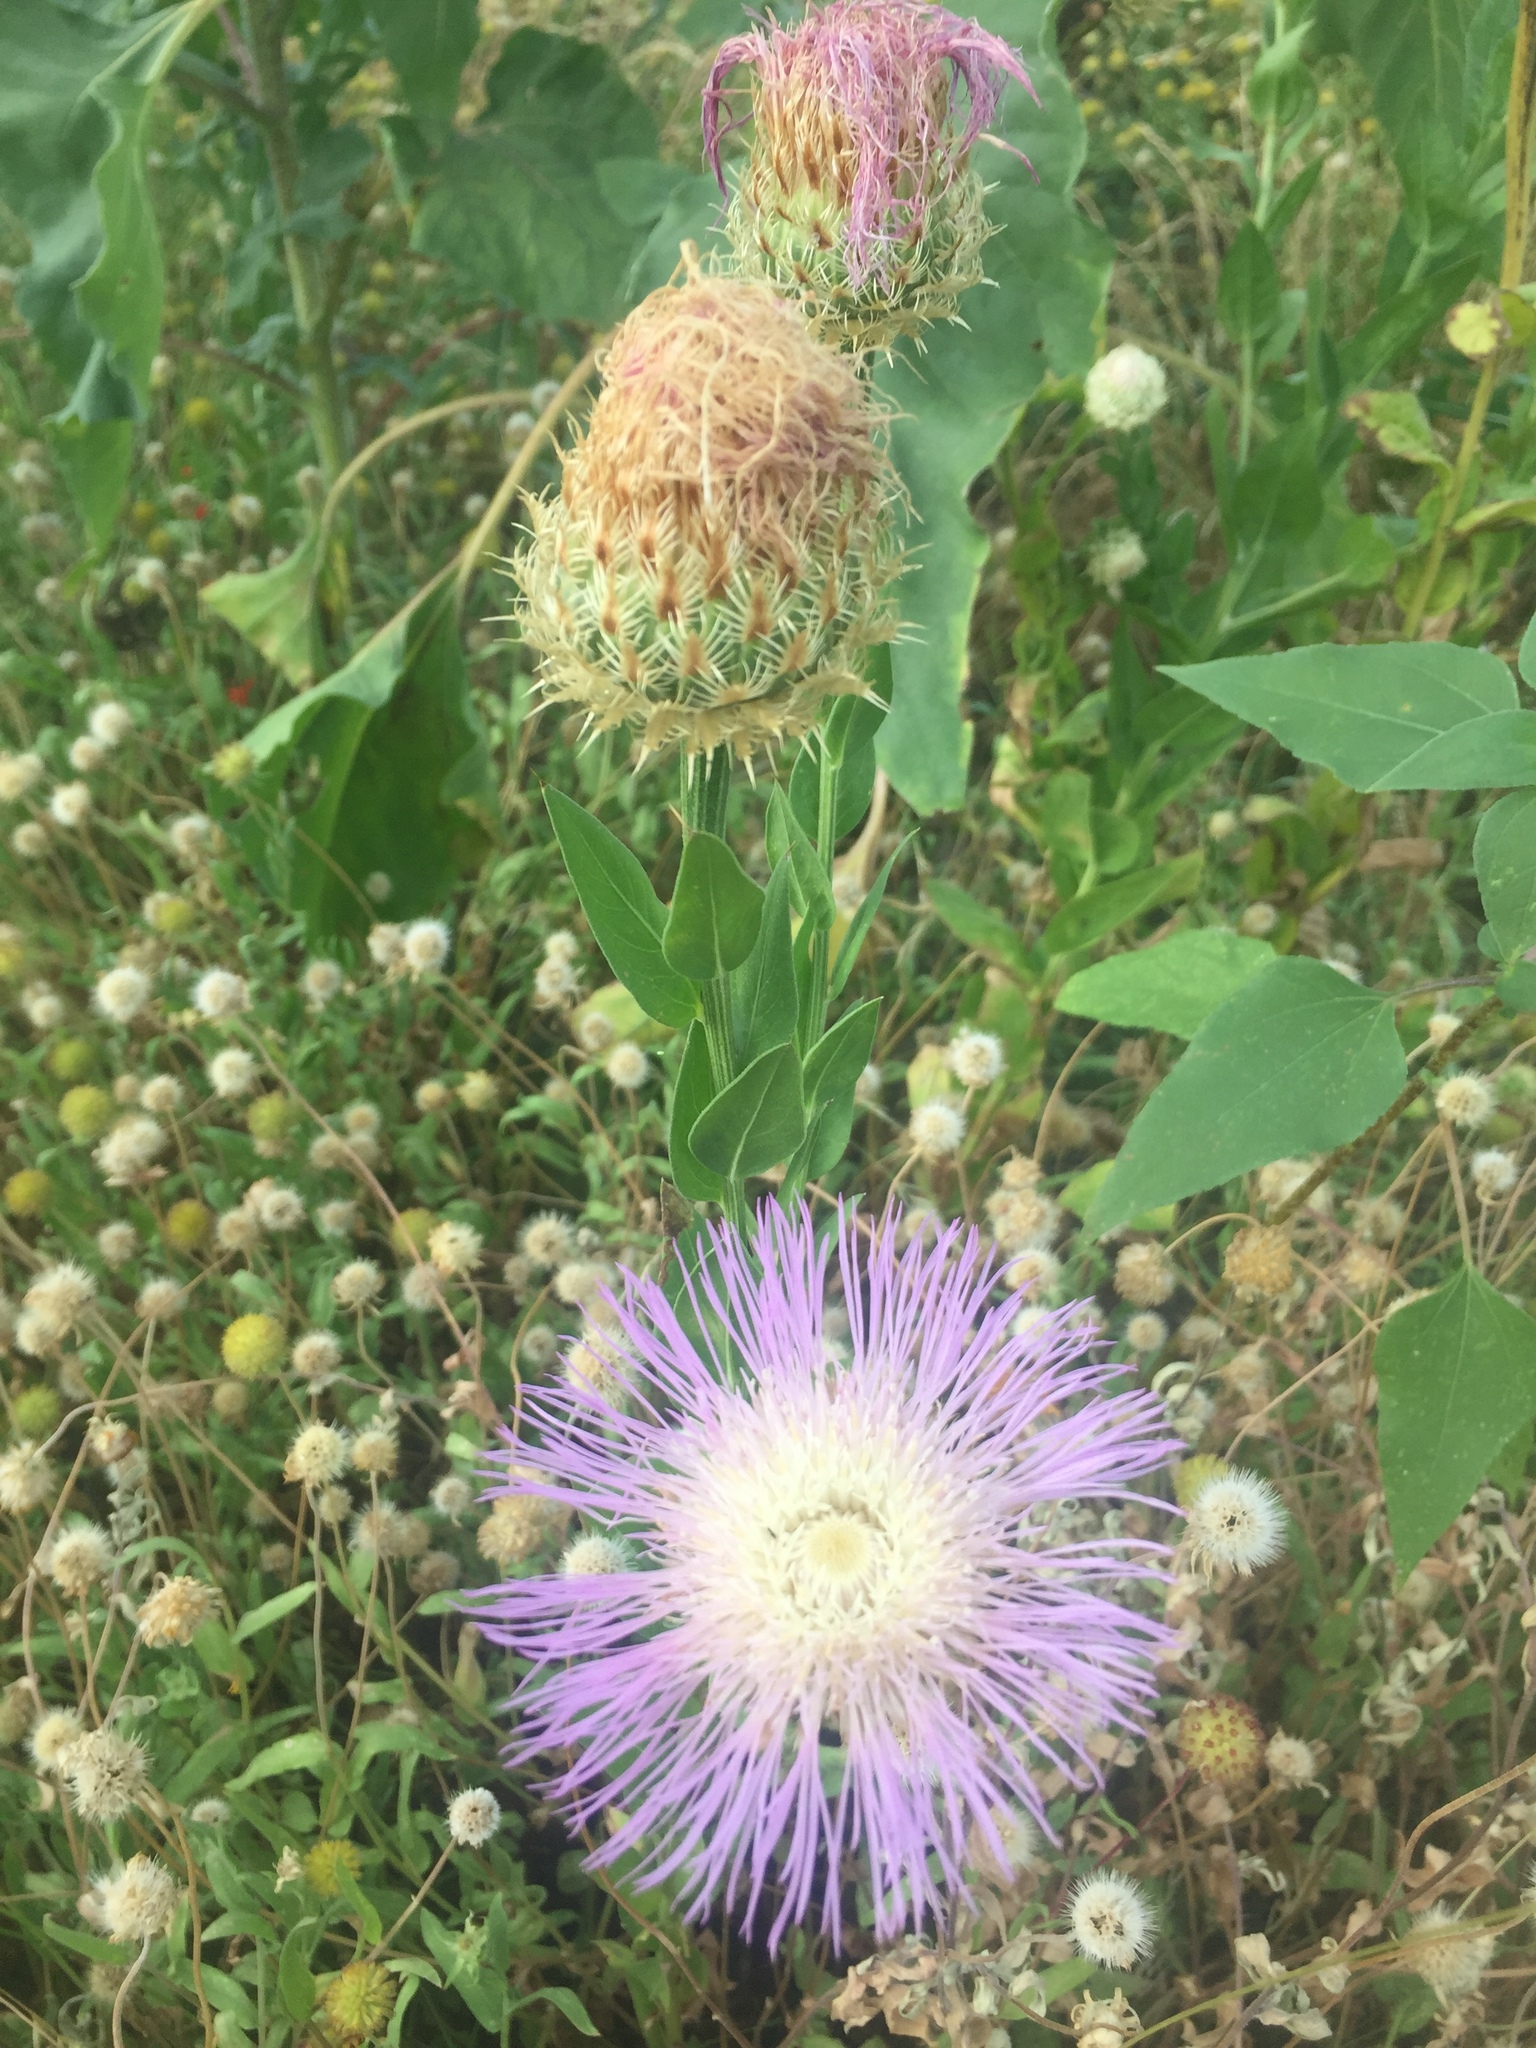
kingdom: Plantae
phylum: Tracheophyta
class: Magnoliopsida
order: Asterales
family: Asteraceae
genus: Plectocephalus
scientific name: Plectocephalus americanus
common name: American basket-flower
